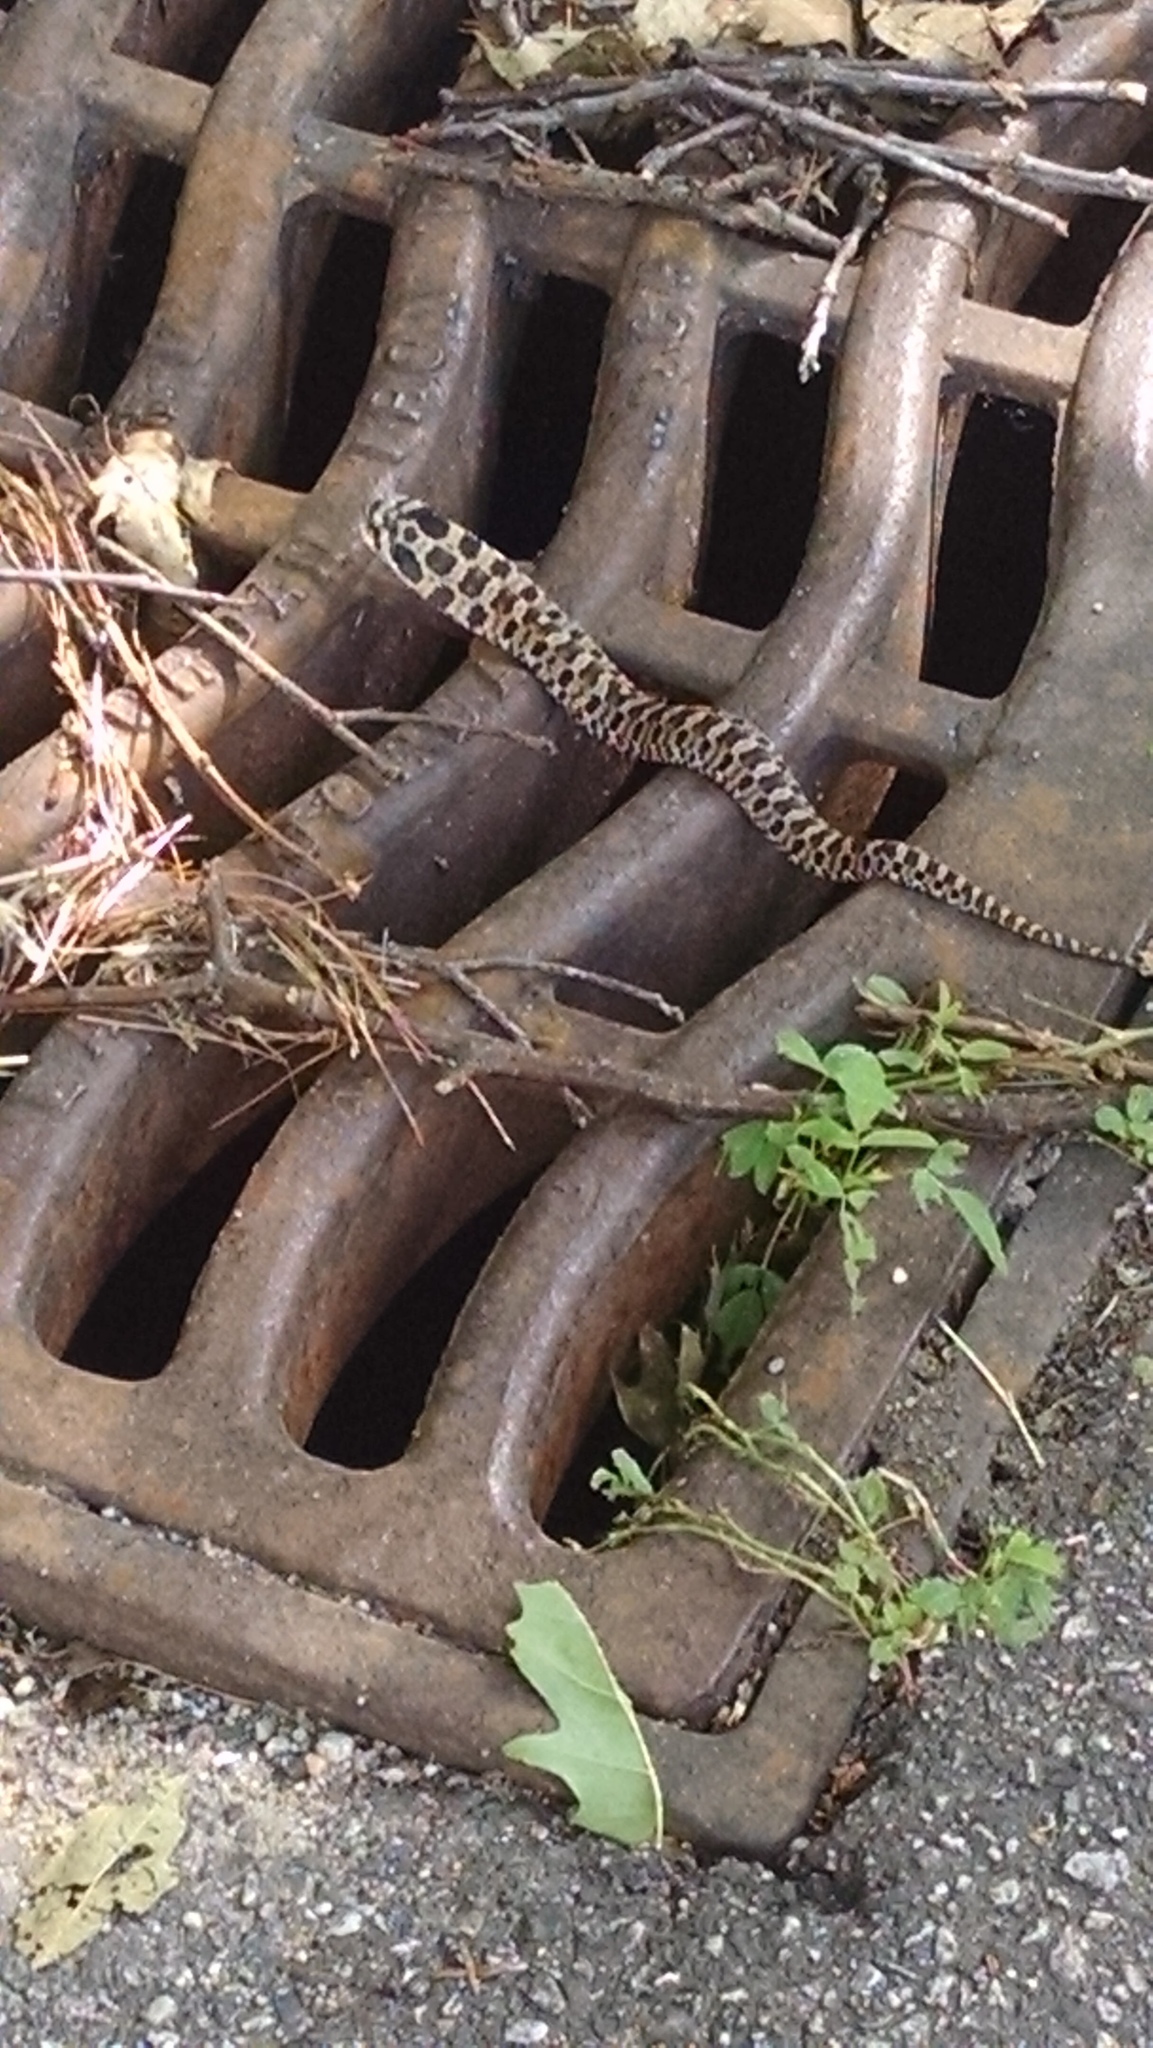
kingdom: Animalia
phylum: Chordata
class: Squamata
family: Colubridae
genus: Heterodon
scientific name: Heterodon platirhinos
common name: Eastern hognose snake
